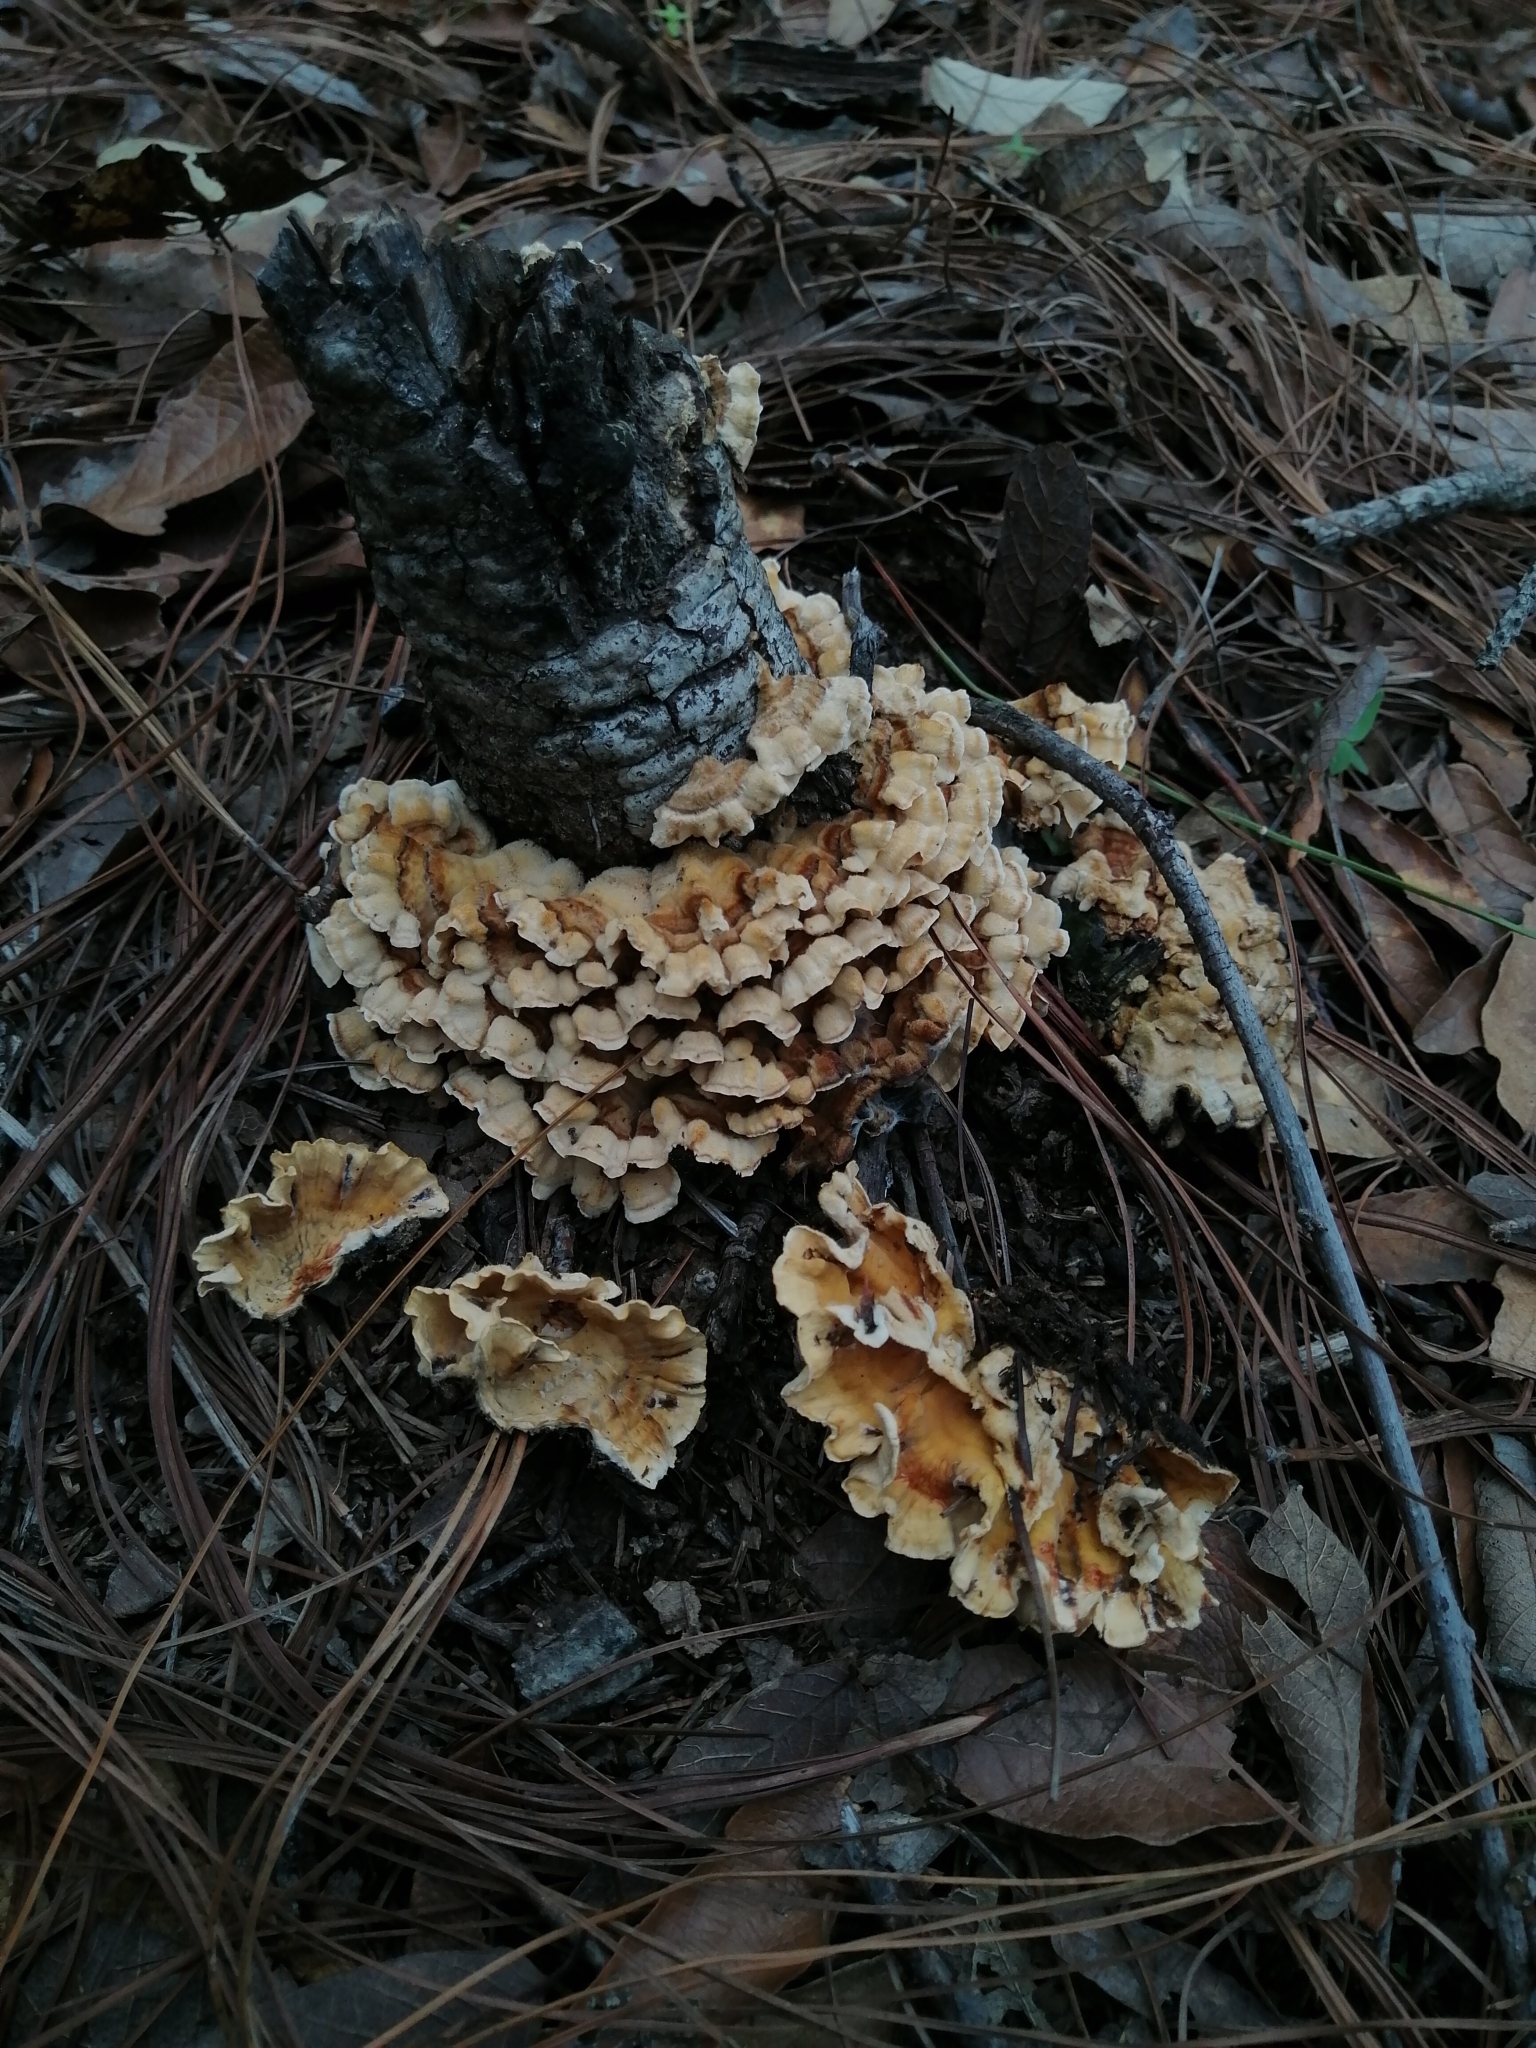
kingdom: Fungi
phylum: Basidiomycota
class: Agaricomycetes
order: Russulales
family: Stereaceae
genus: Stereum
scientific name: Stereum gausapatum
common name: Bleeding oak crust
